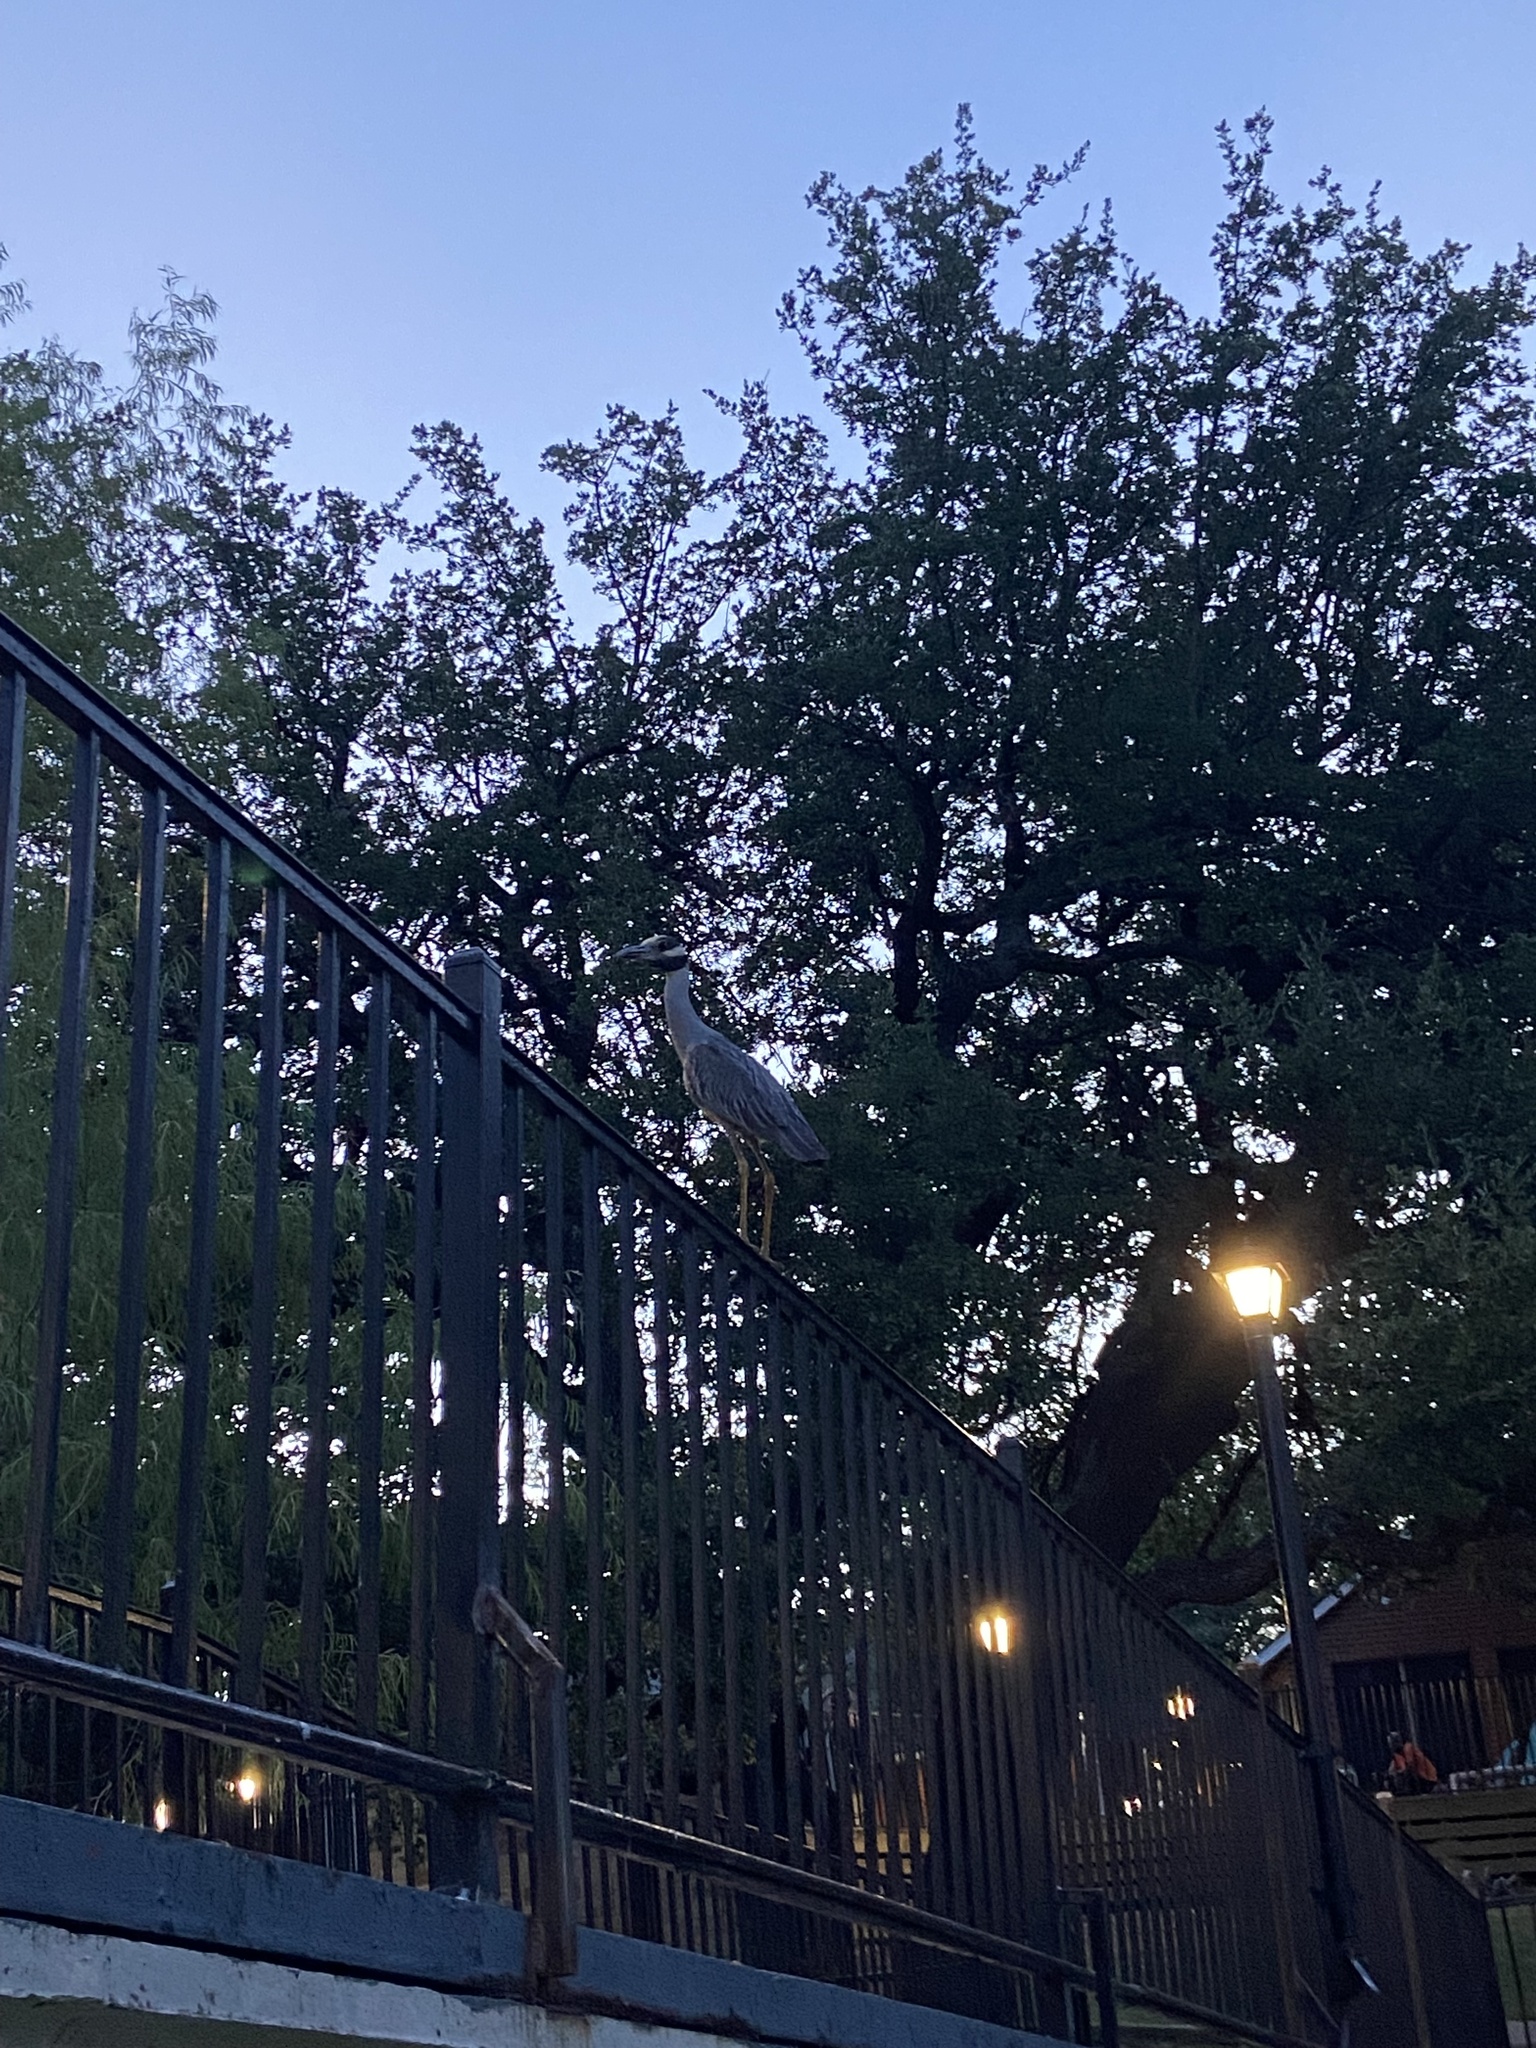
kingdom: Animalia
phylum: Chordata
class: Aves
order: Pelecaniformes
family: Ardeidae
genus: Nyctanassa
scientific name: Nyctanassa violacea
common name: Yellow-crowned night heron
